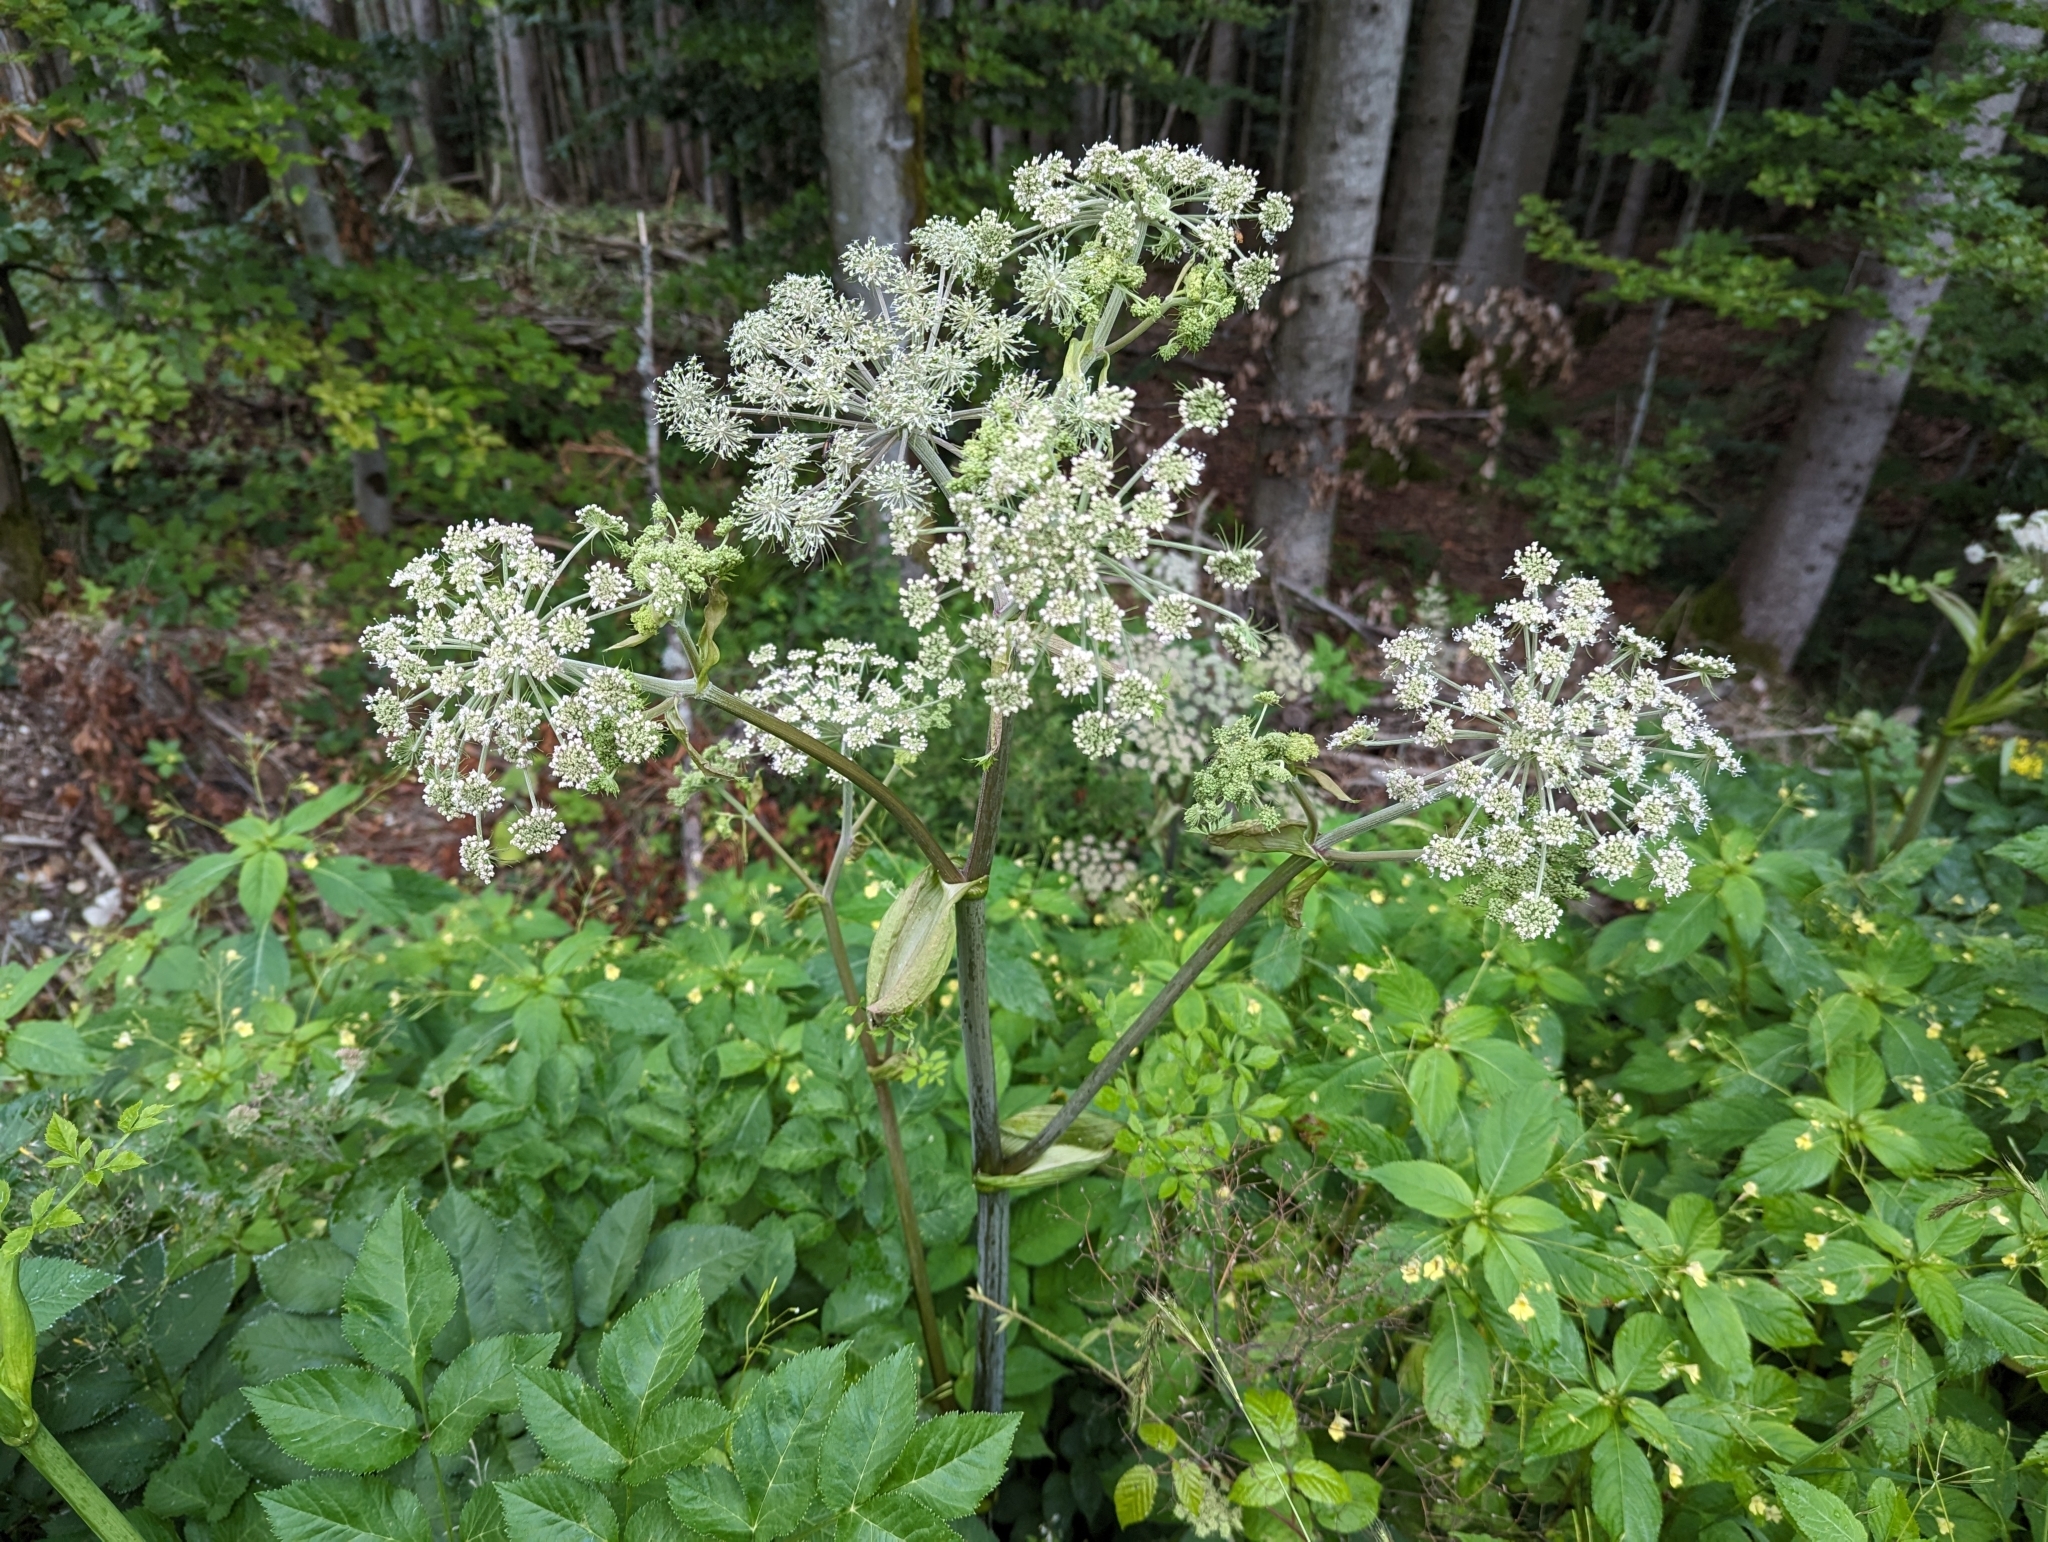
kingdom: Plantae
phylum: Tracheophyta
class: Magnoliopsida
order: Apiales
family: Apiaceae
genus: Angelica
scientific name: Angelica sylvestris
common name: Wild angelica
